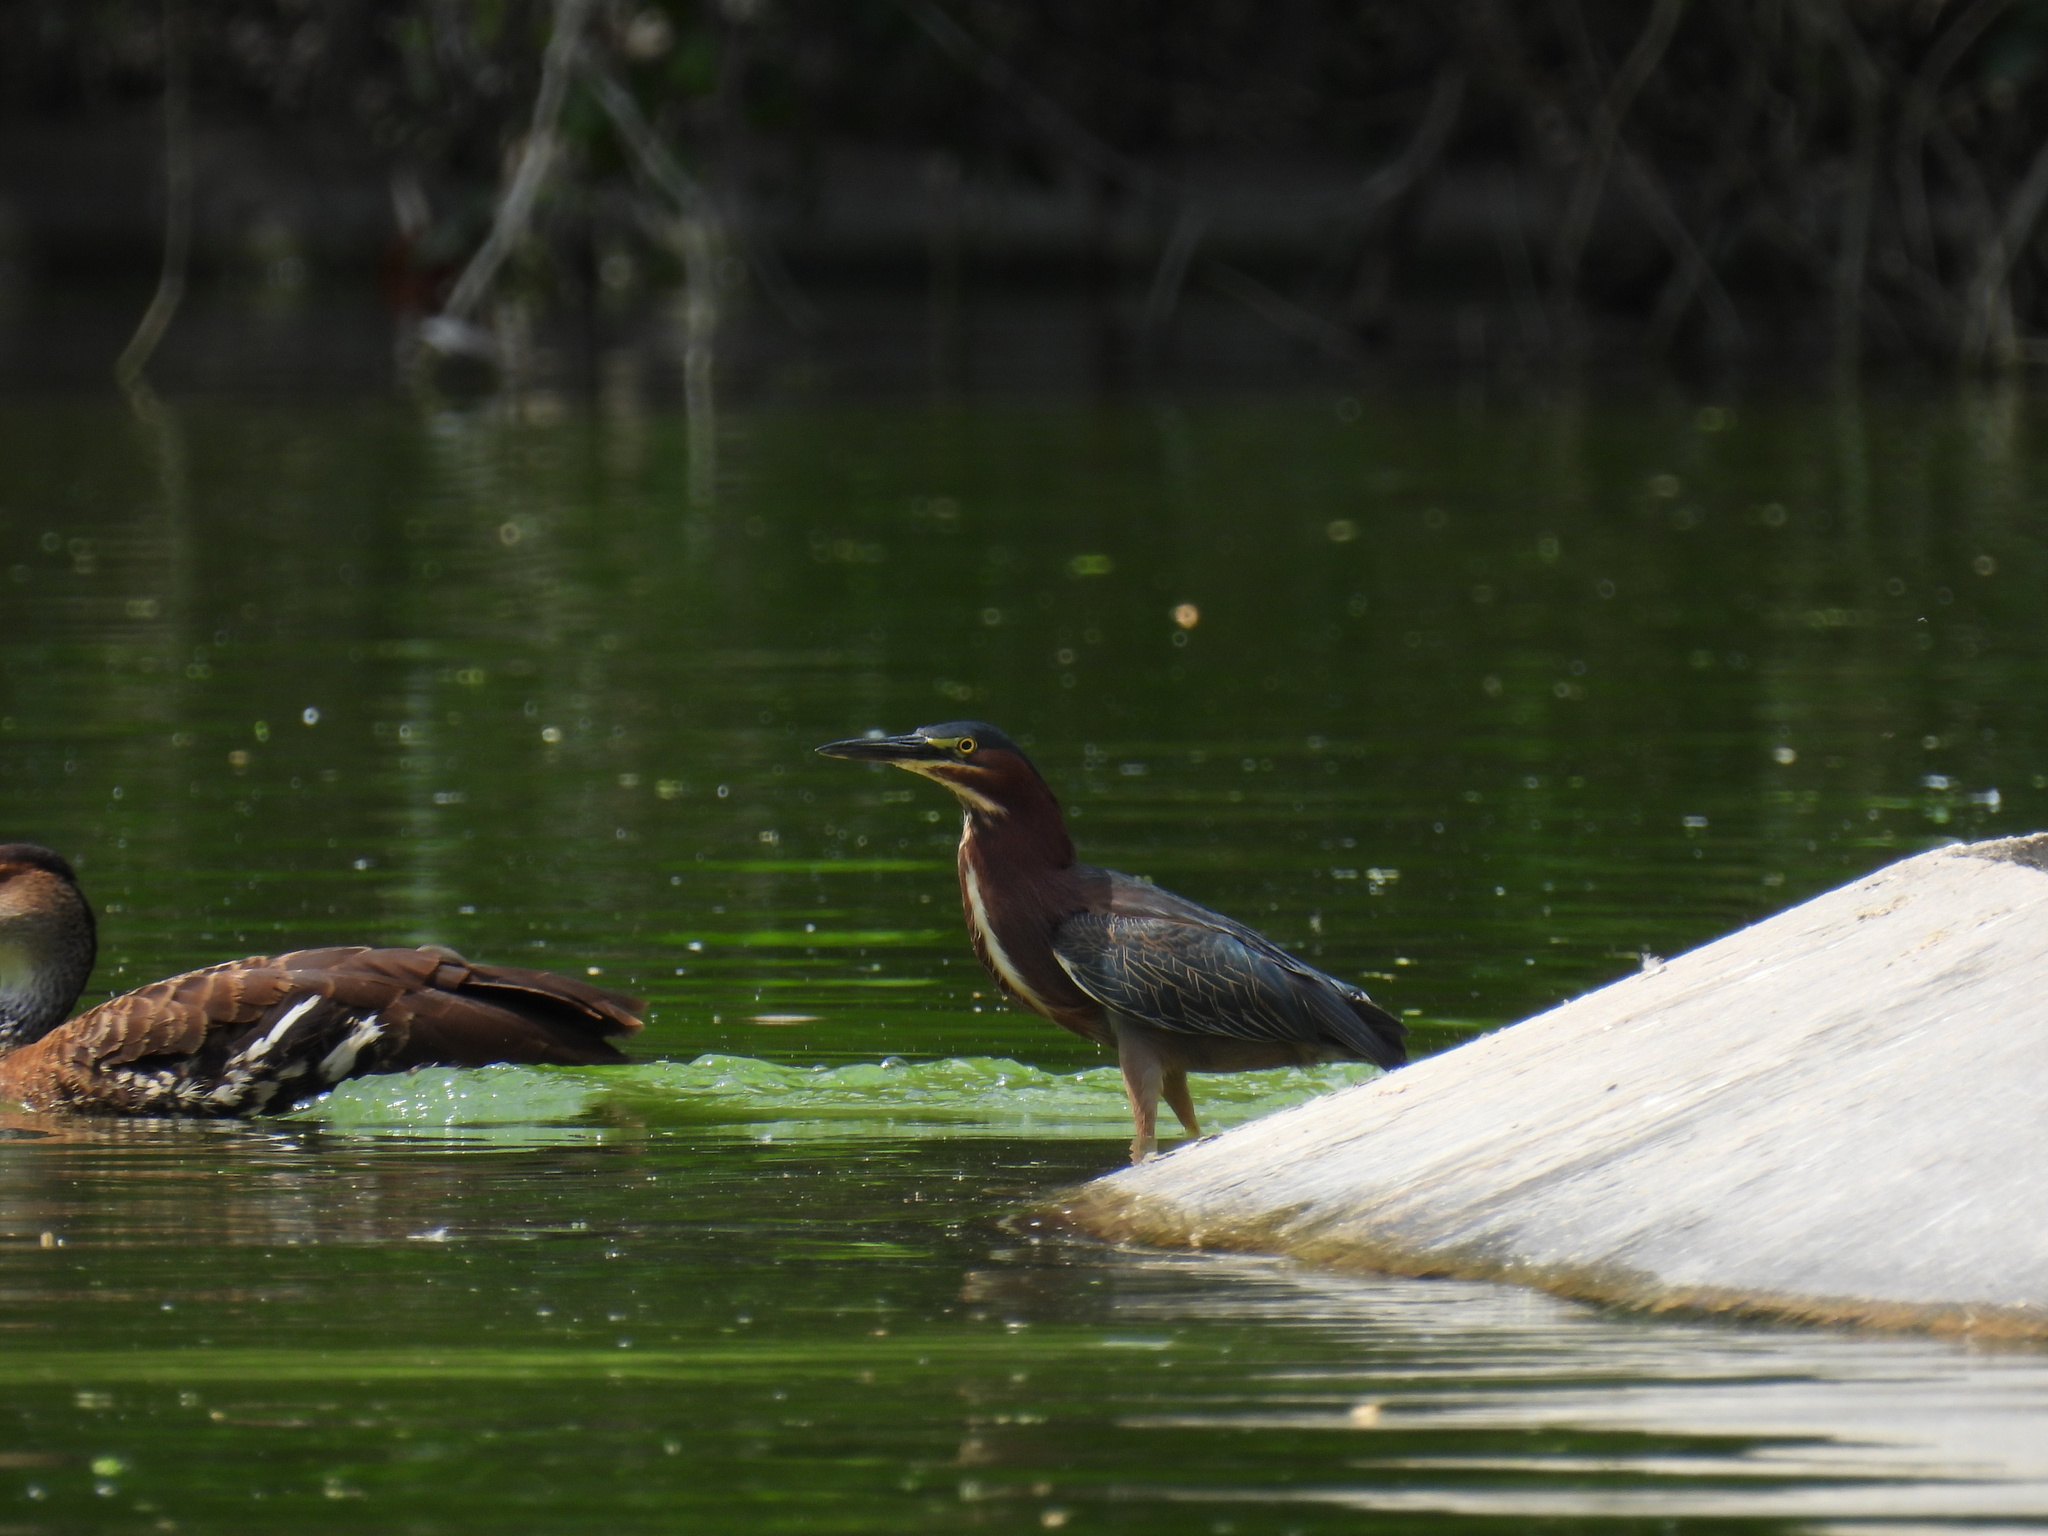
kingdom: Animalia
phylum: Chordata
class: Aves
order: Pelecaniformes
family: Ardeidae
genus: Butorides
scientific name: Butorides virescens
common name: Green heron
